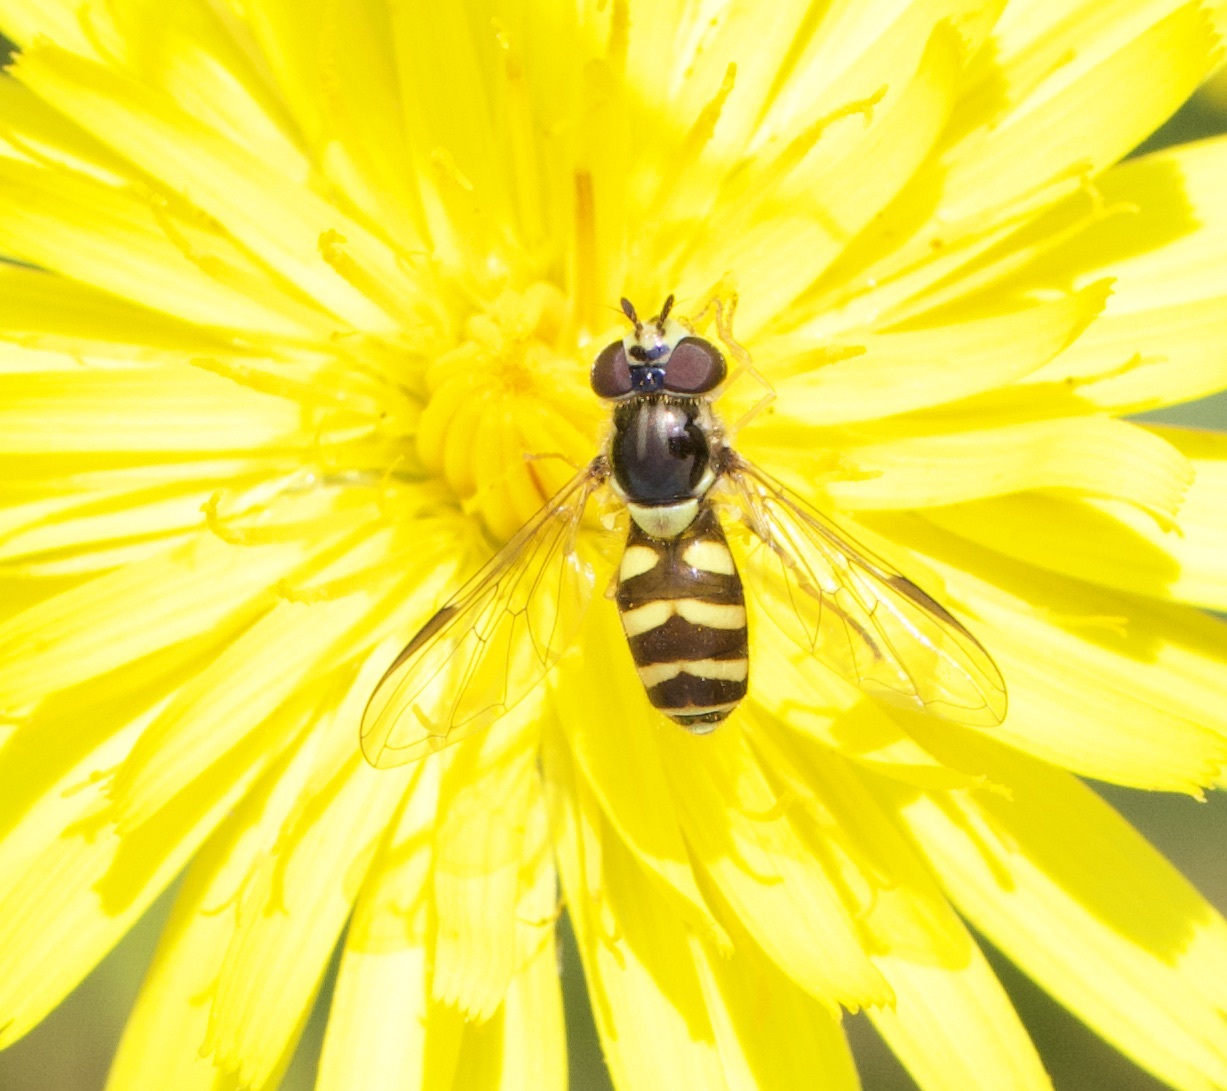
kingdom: Animalia
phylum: Arthropoda
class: Insecta
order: Diptera
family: Syrphidae
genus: Dasysyrphus
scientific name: Dasysyrphus albostriatus
